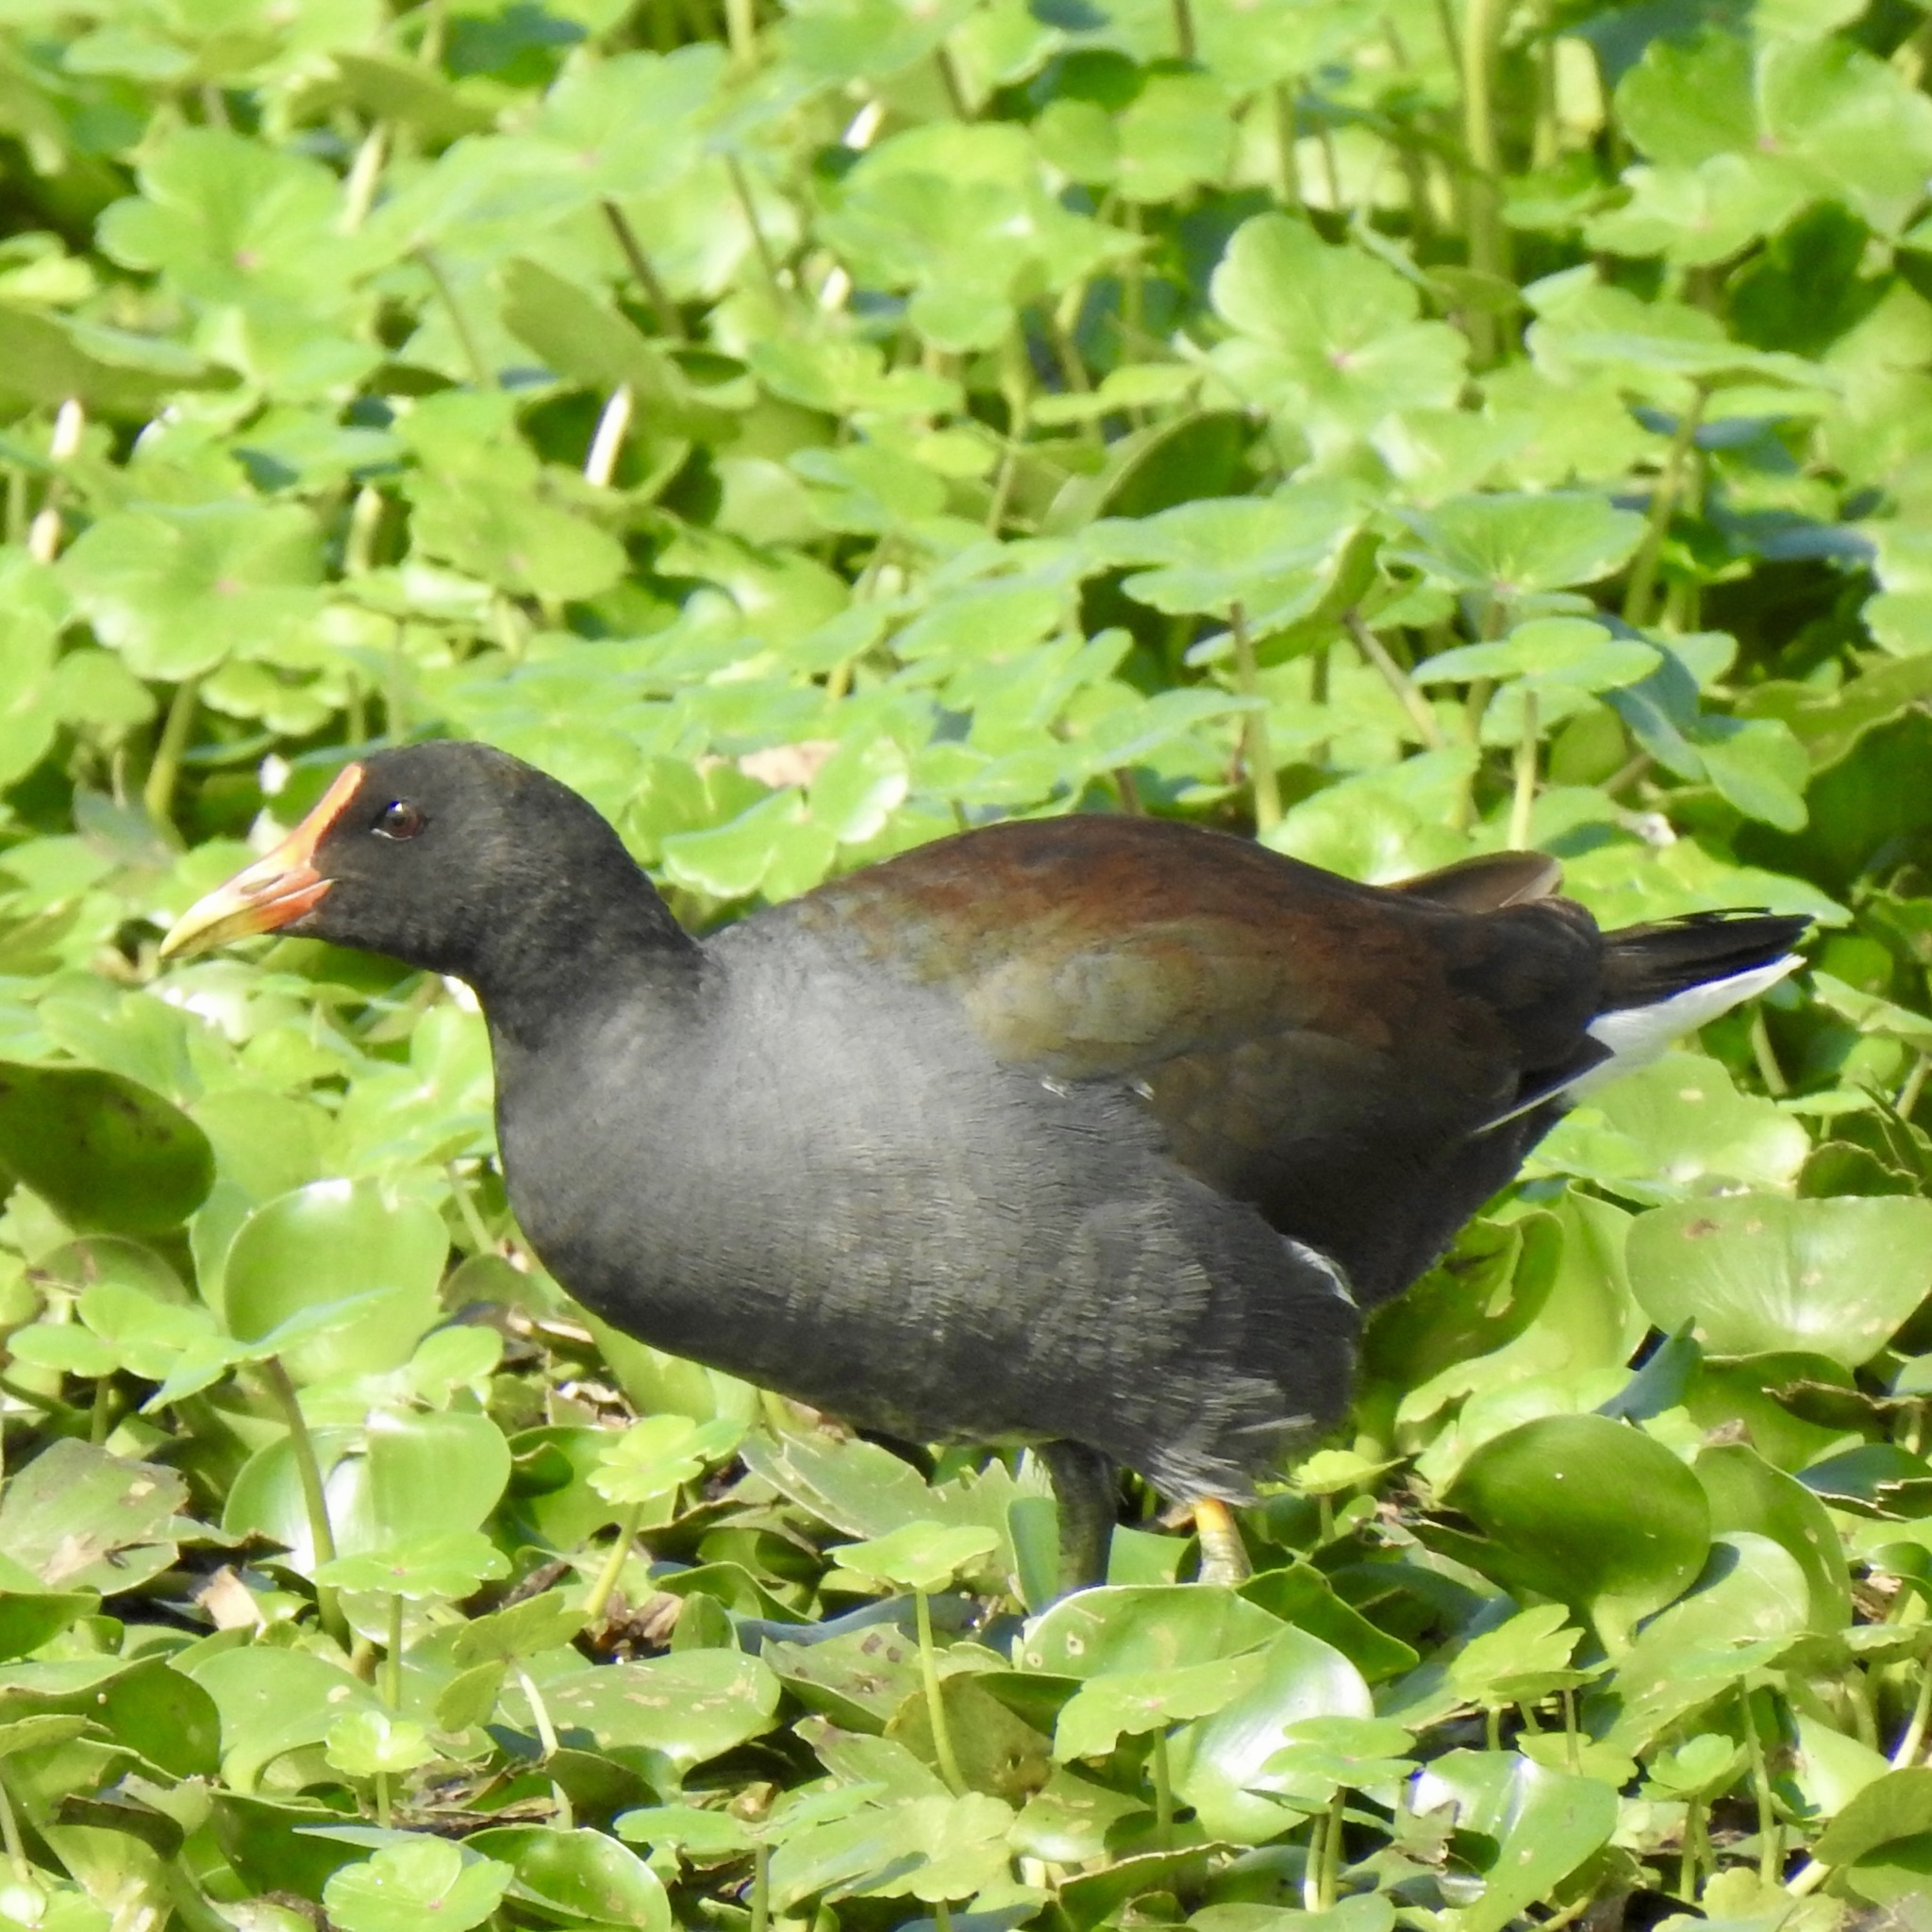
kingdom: Animalia
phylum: Chordata
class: Aves
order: Gruiformes
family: Rallidae
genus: Gallinula
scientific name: Gallinula chloropus
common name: Common moorhen
